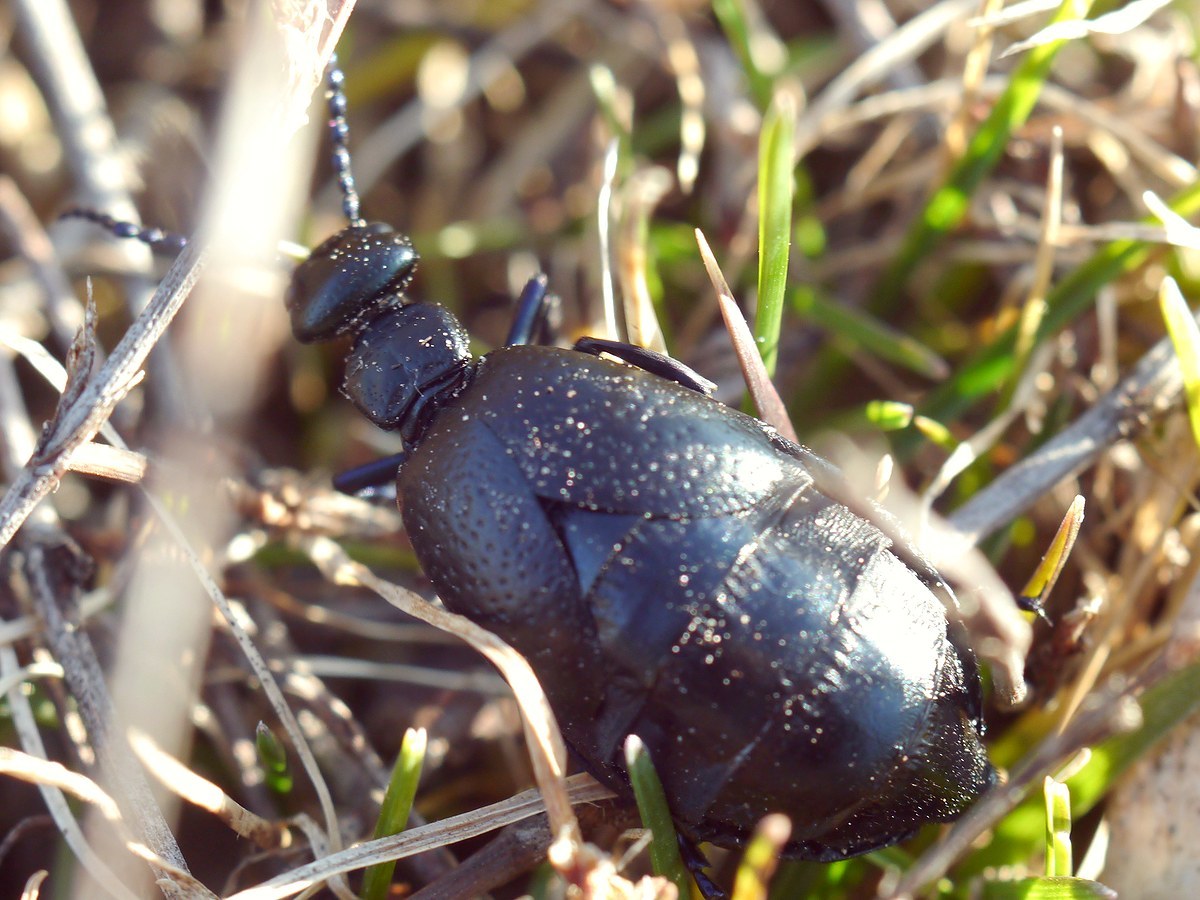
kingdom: Animalia
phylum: Arthropoda
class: Insecta
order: Coleoptera
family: Meloidae
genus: Meloe
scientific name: Meloe autumnalis
